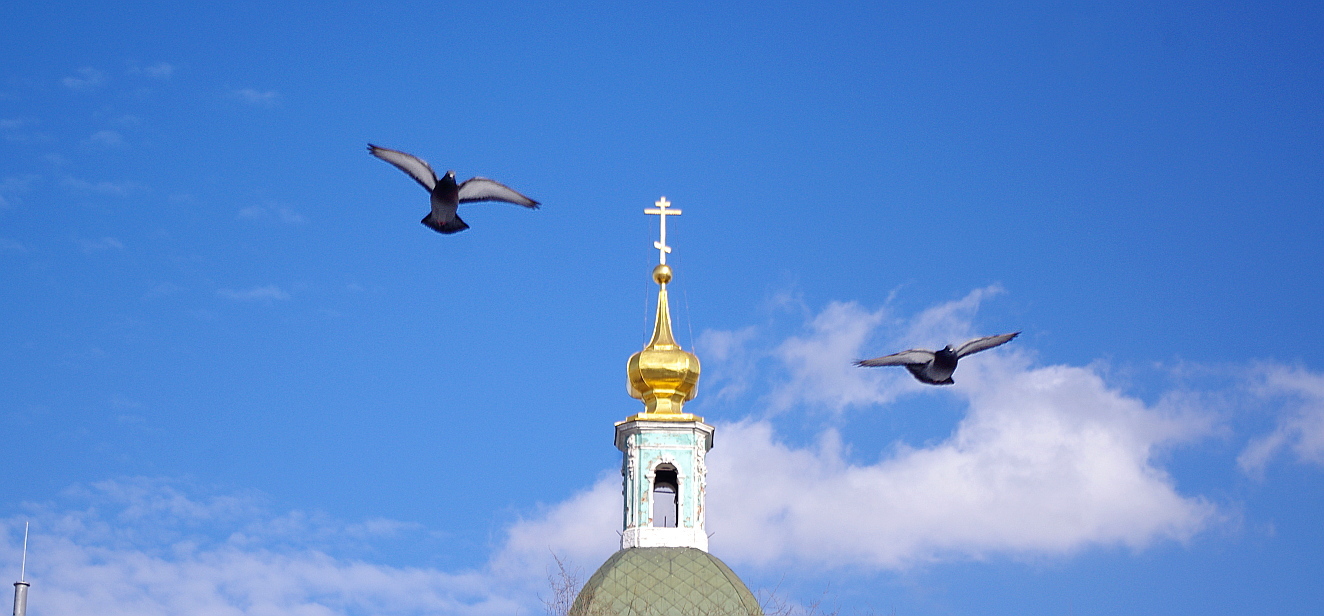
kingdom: Animalia
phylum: Chordata
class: Aves
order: Columbiformes
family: Columbidae
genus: Columba
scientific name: Columba livia
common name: Rock pigeon
